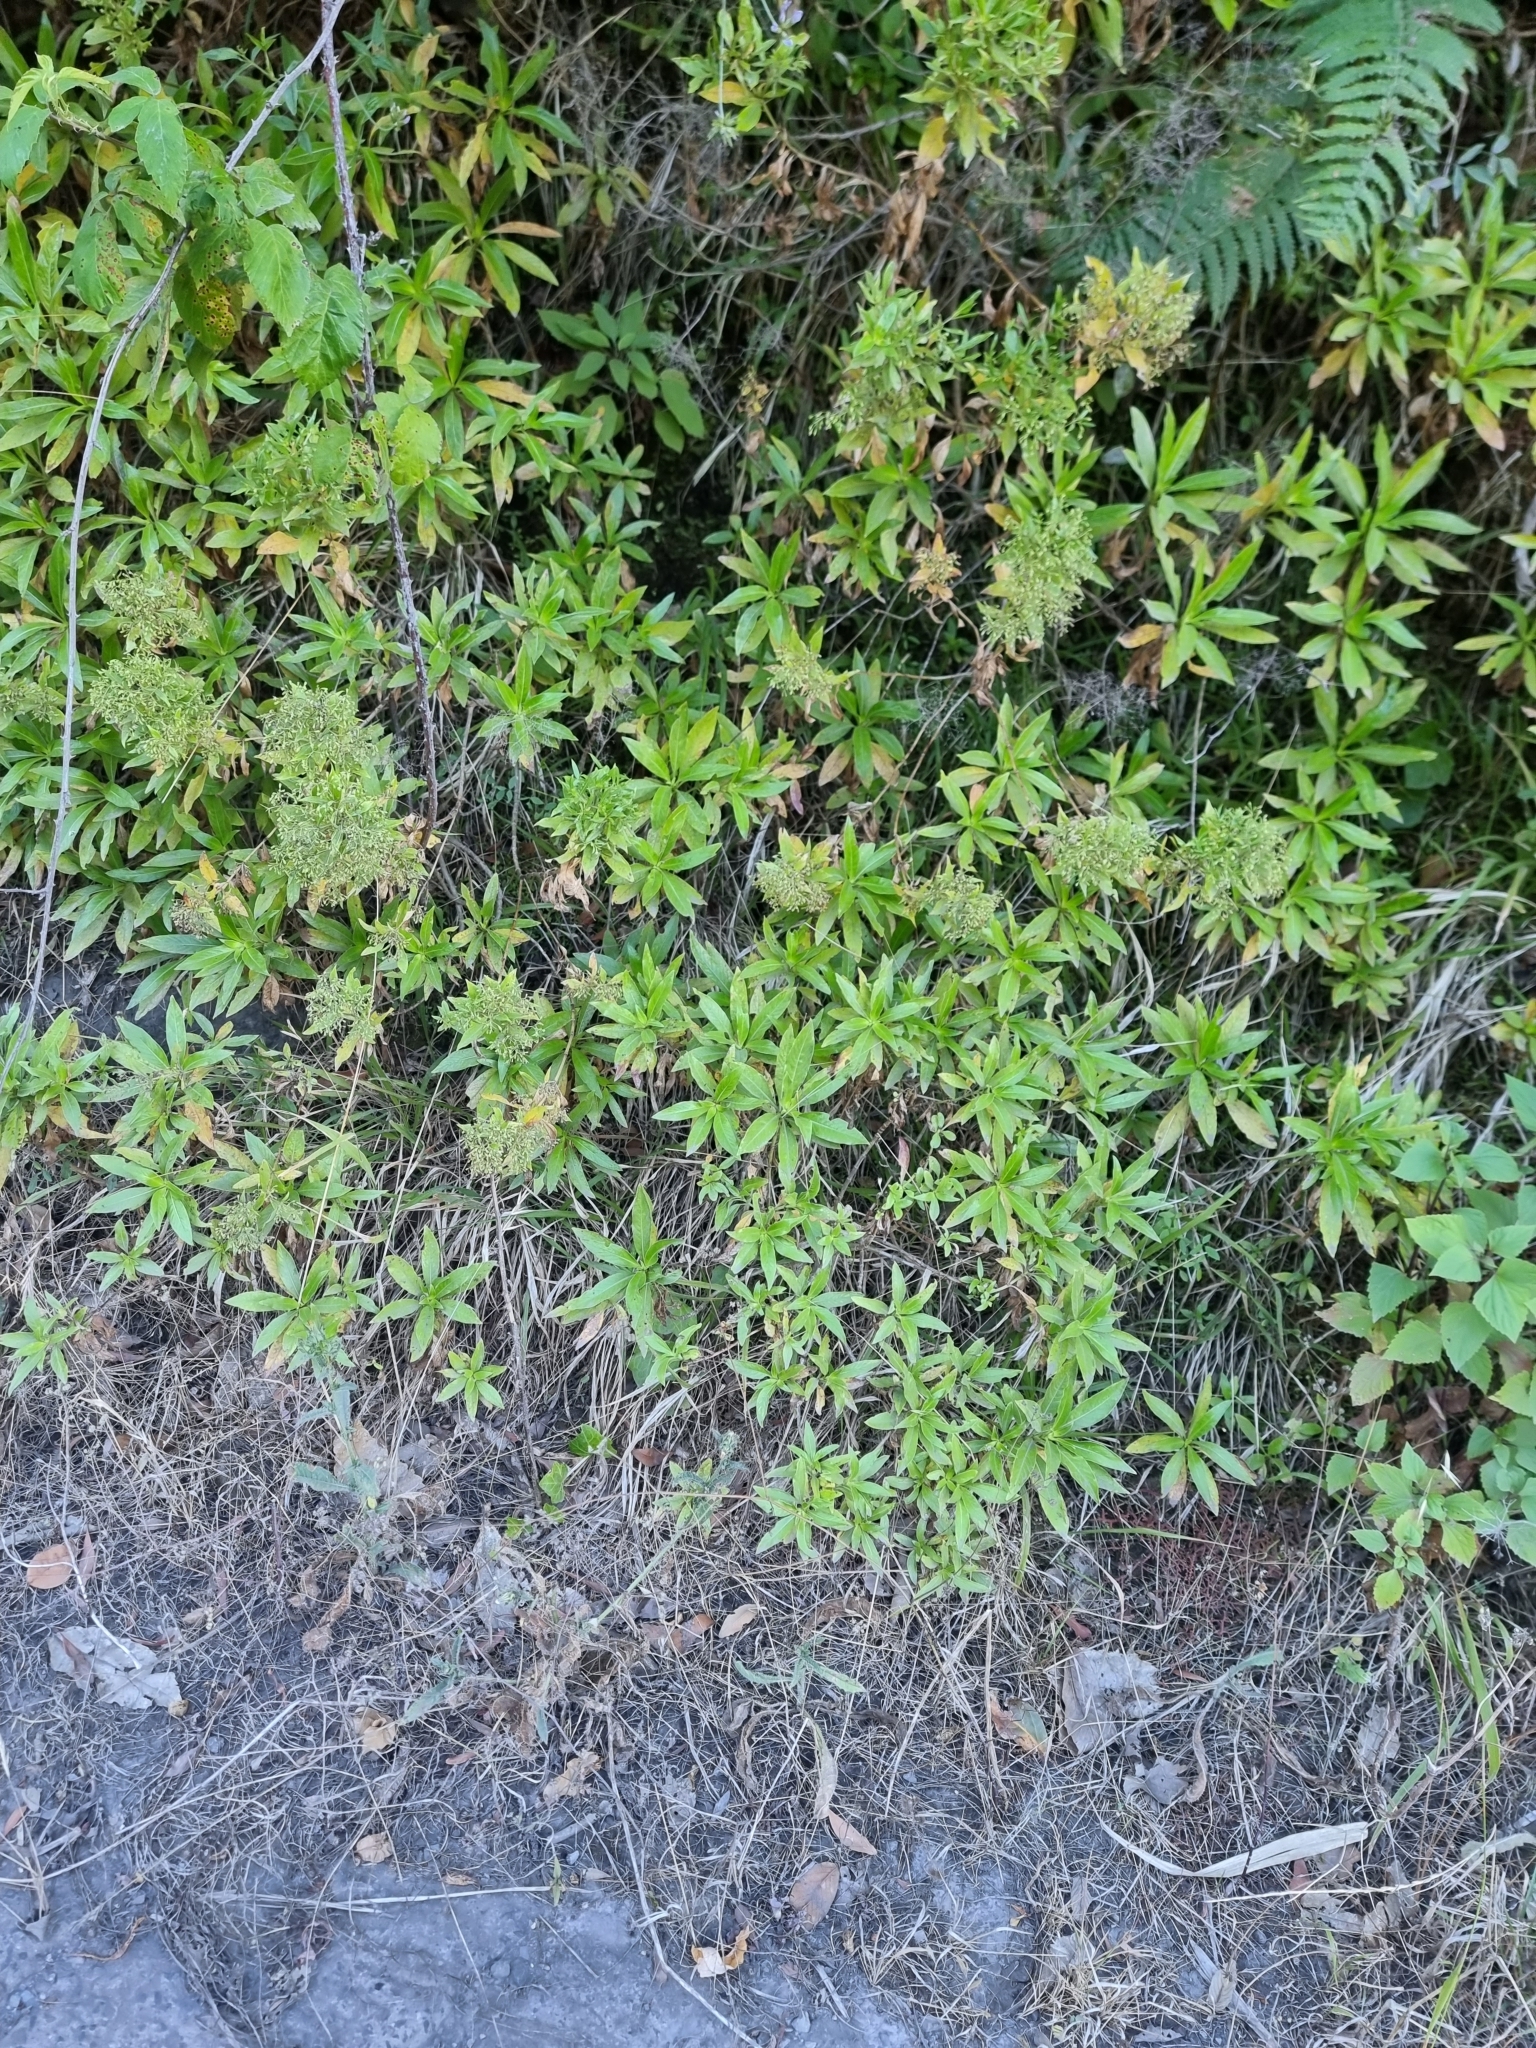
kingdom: Plantae
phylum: Tracheophyta
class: Magnoliopsida
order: Gentianales
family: Rubiaceae
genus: Phyllis
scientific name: Phyllis nobla
